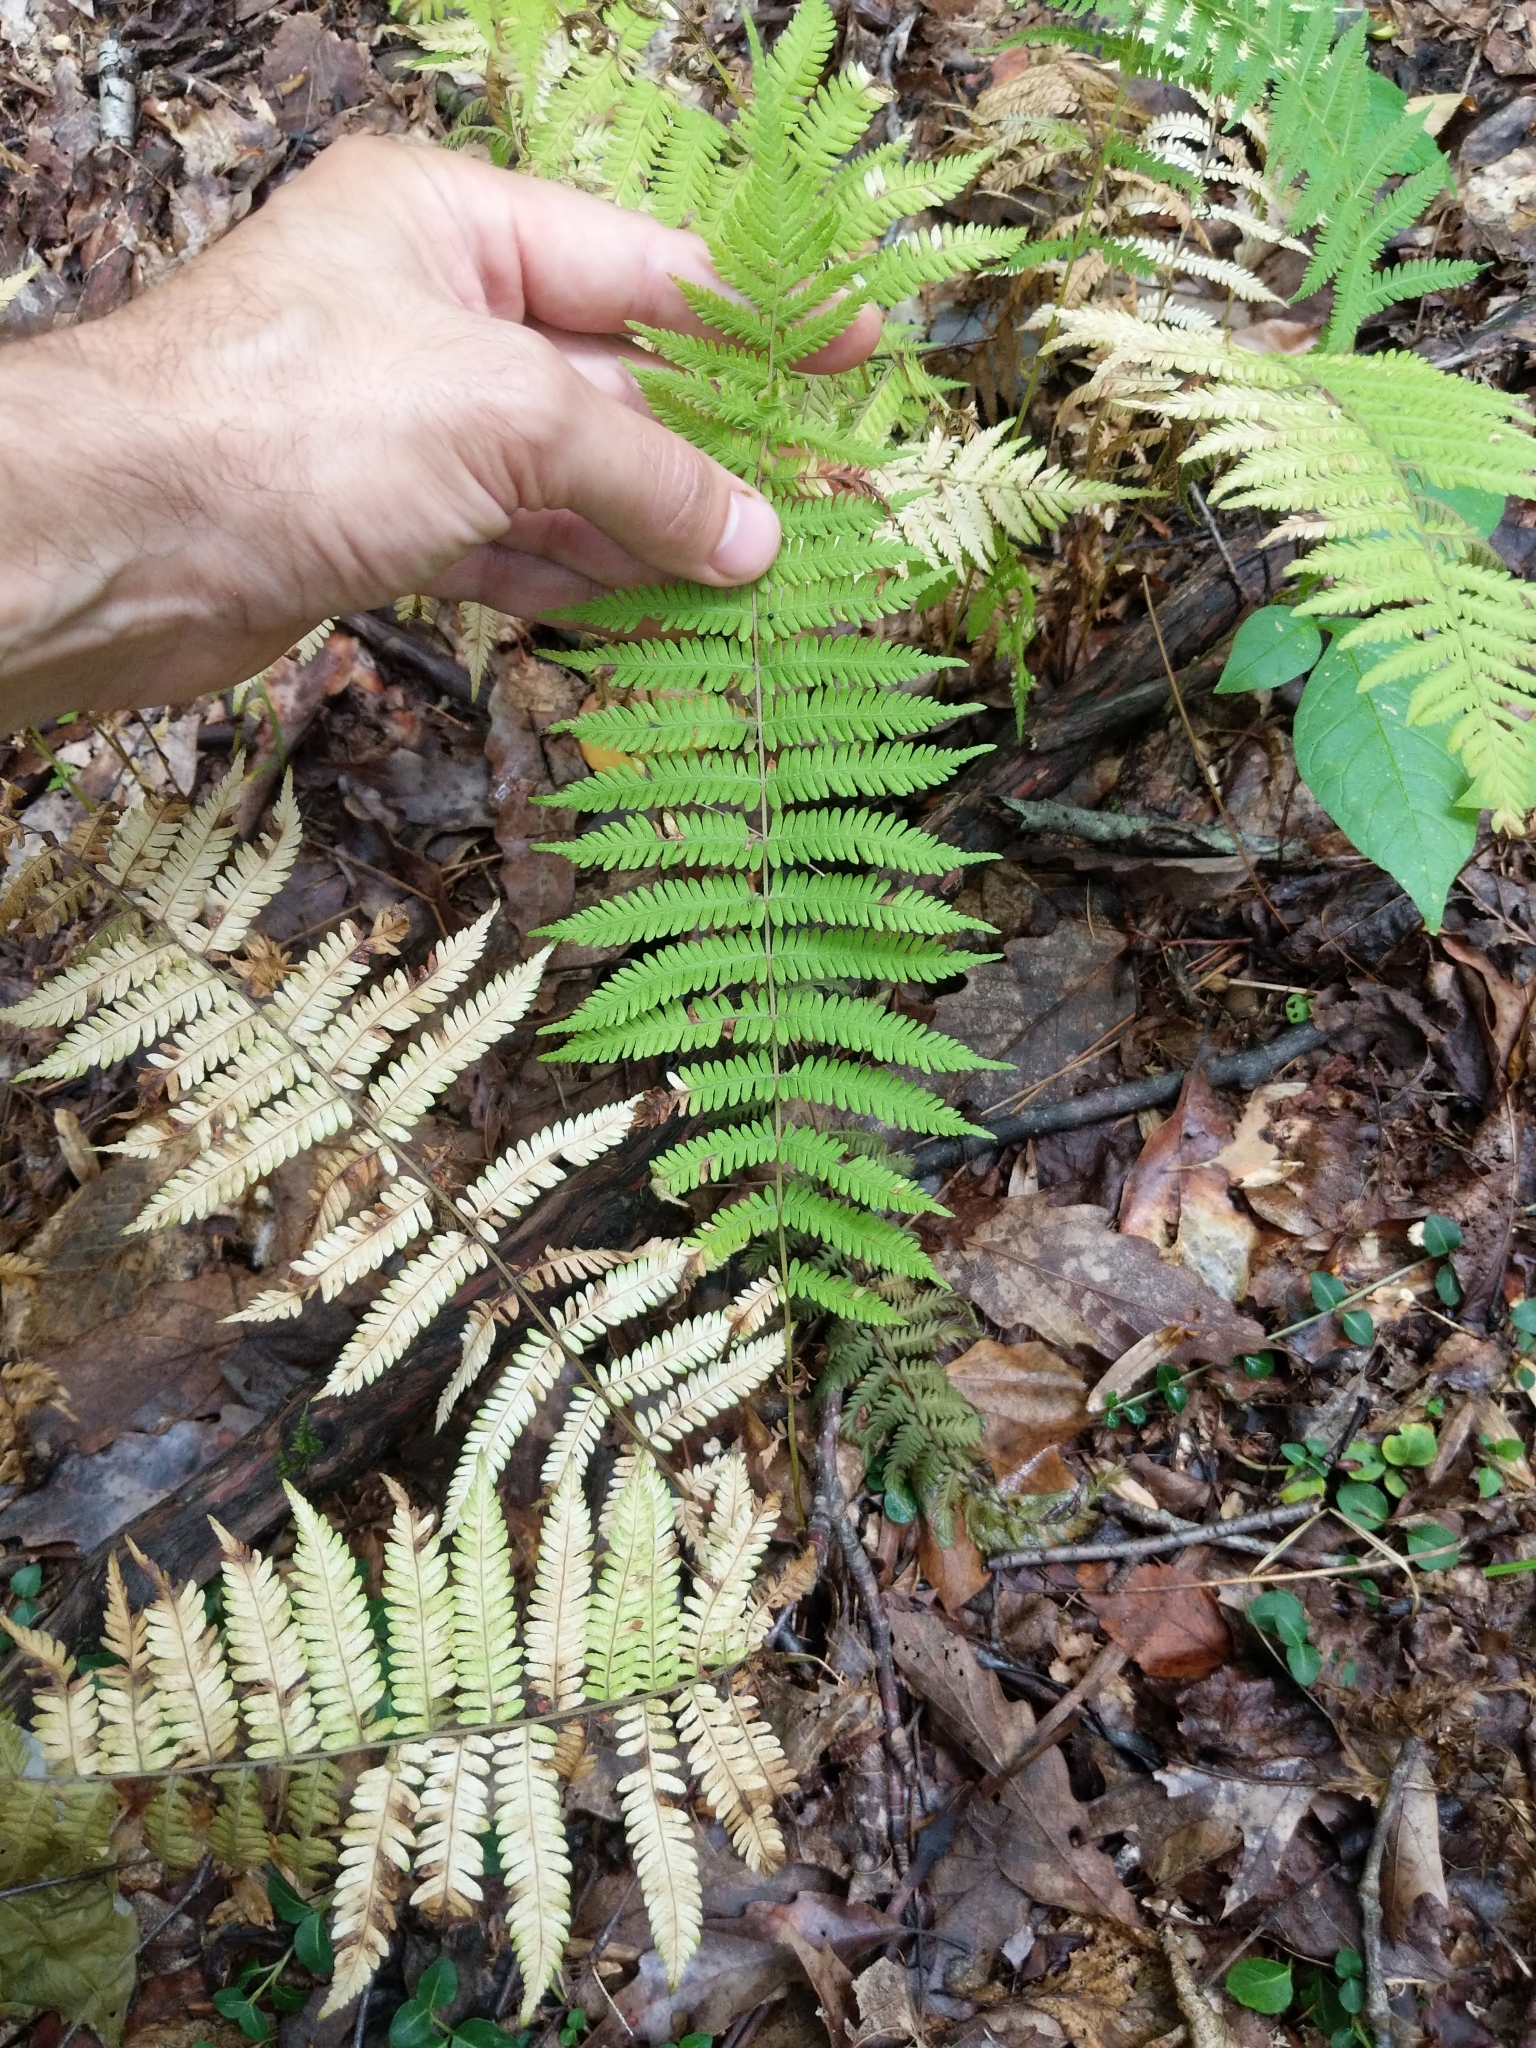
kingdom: Plantae
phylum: Tracheophyta
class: Polypodiopsida
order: Polypodiales
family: Thelypteridaceae
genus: Amauropelta
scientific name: Amauropelta noveboracensis
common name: New york fern
